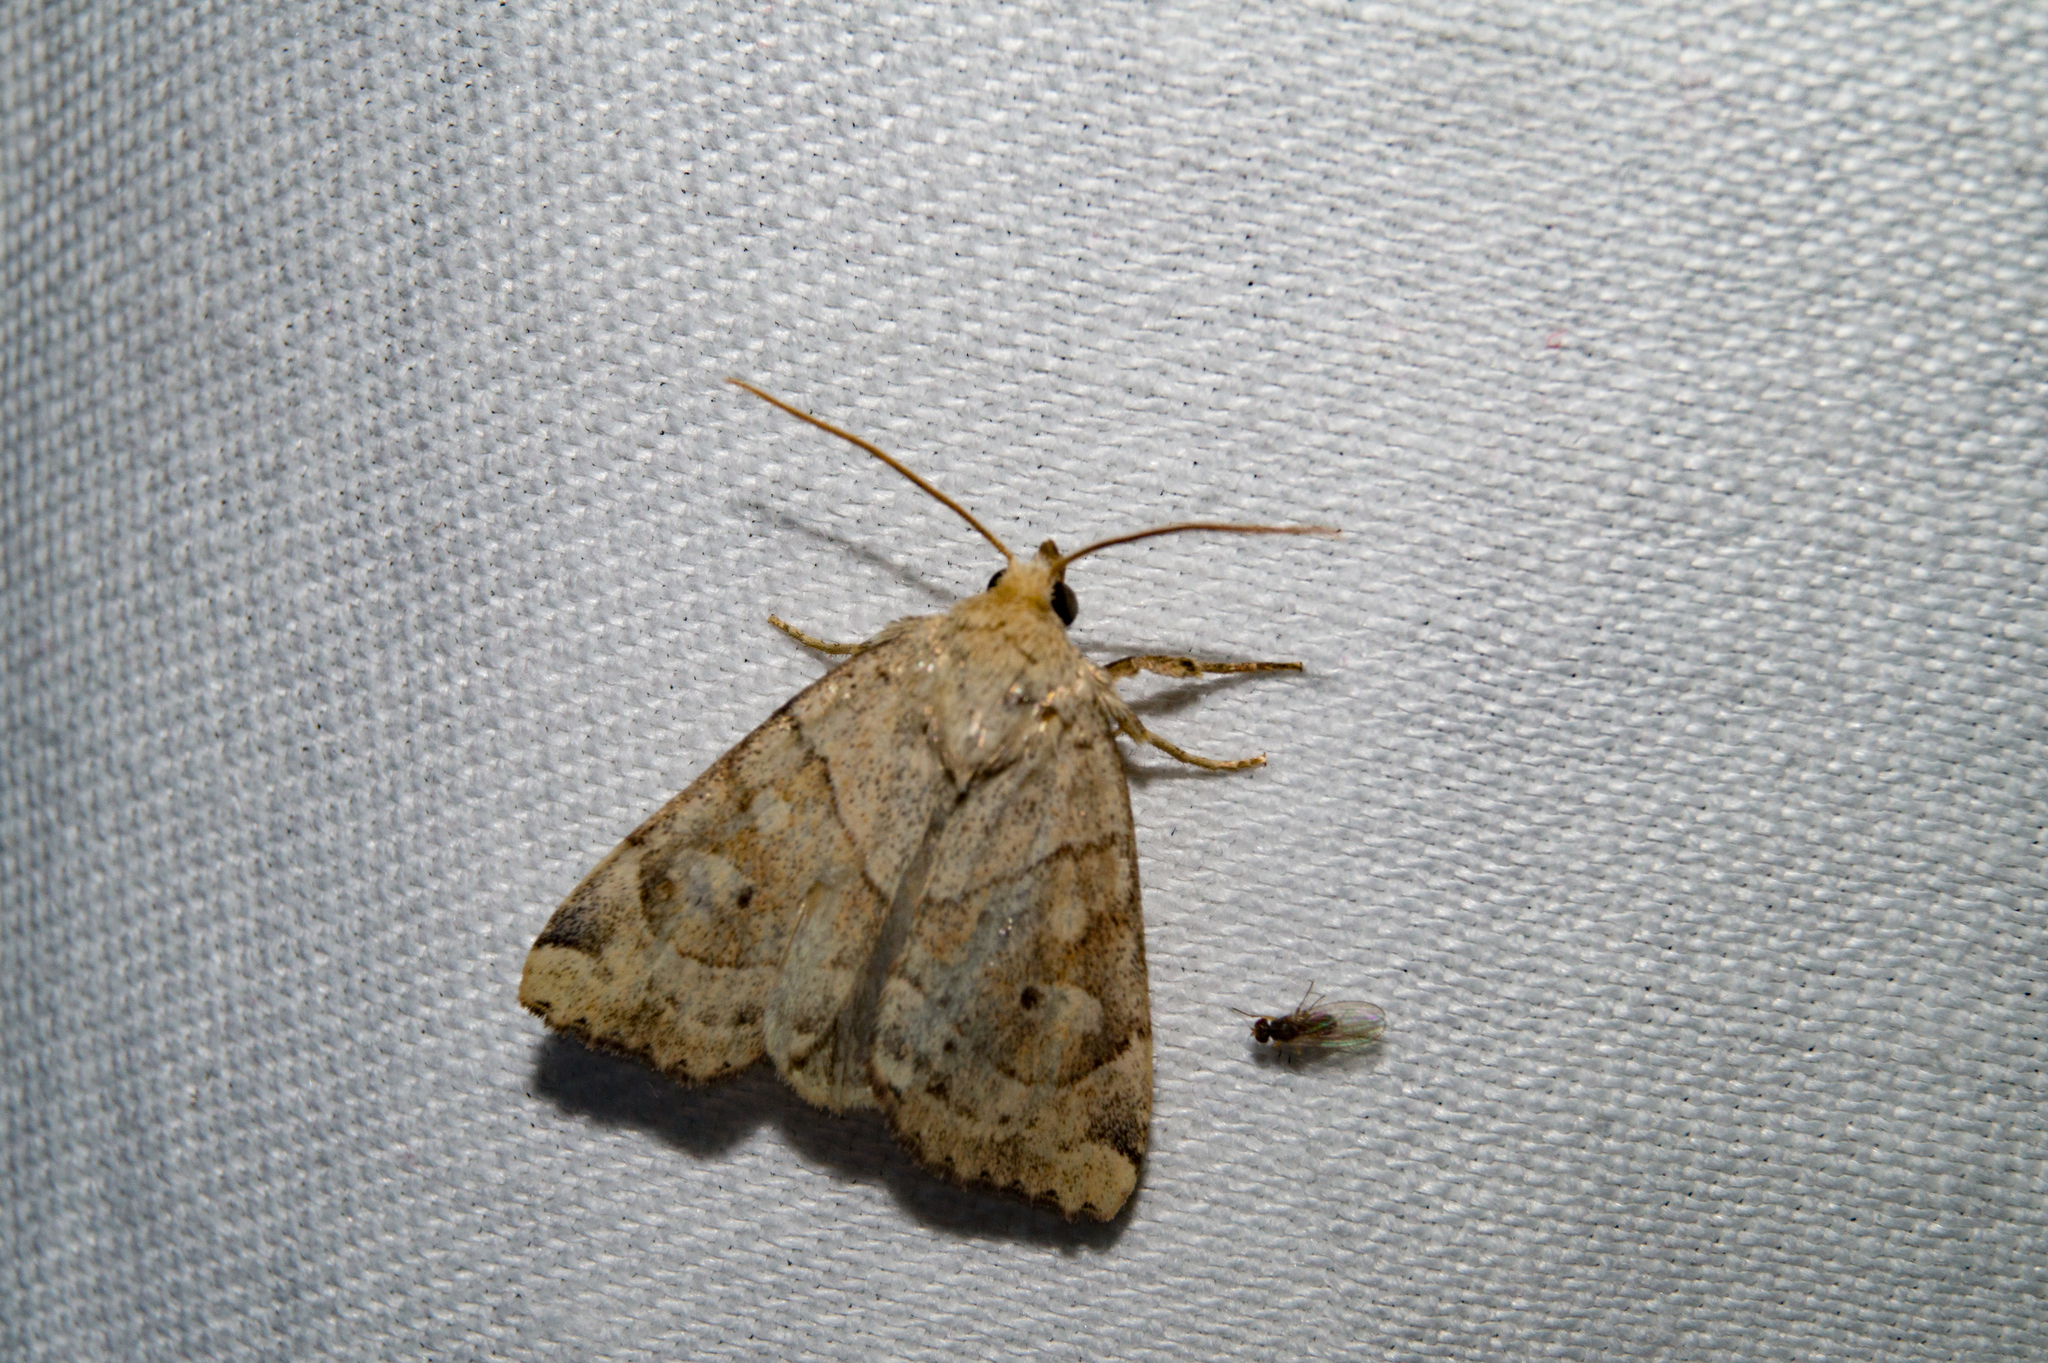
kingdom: Animalia
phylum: Arthropoda
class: Insecta
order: Lepidoptera
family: Noctuidae
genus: Cosmia
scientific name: Cosmia trapezina
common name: Dun-bar
